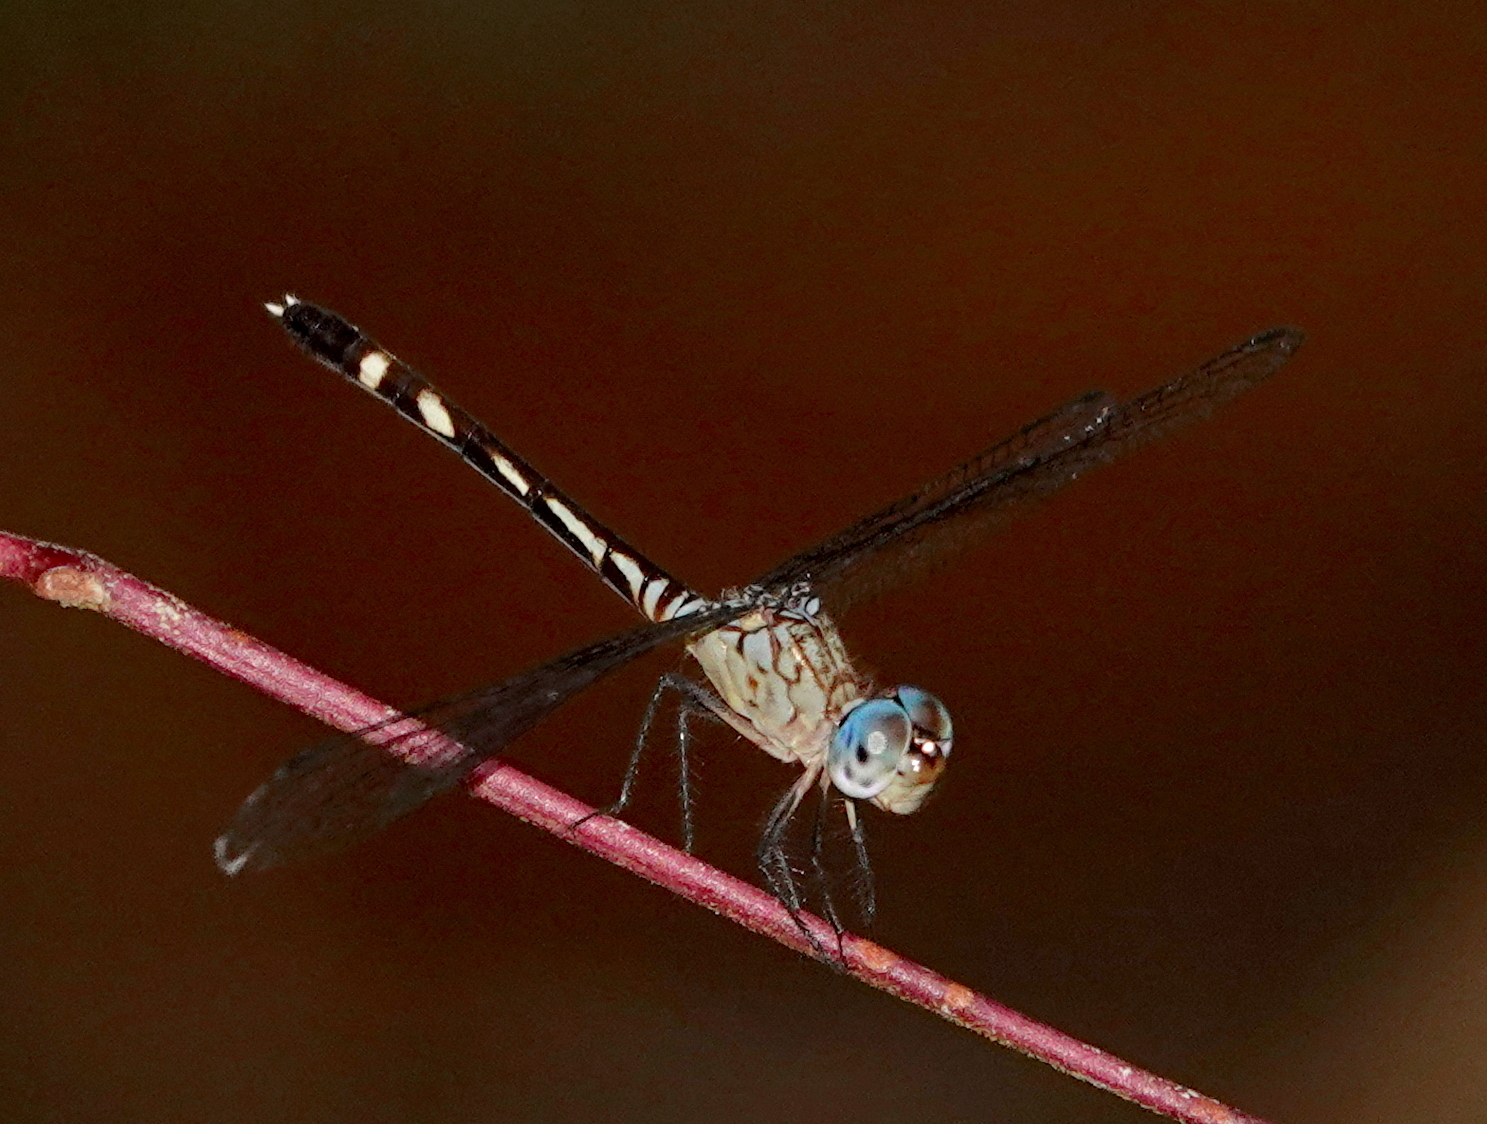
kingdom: Animalia
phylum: Arthropoda
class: Insecta
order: Odonata
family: Libellulidae
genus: Anatya
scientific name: Anatya guttata
